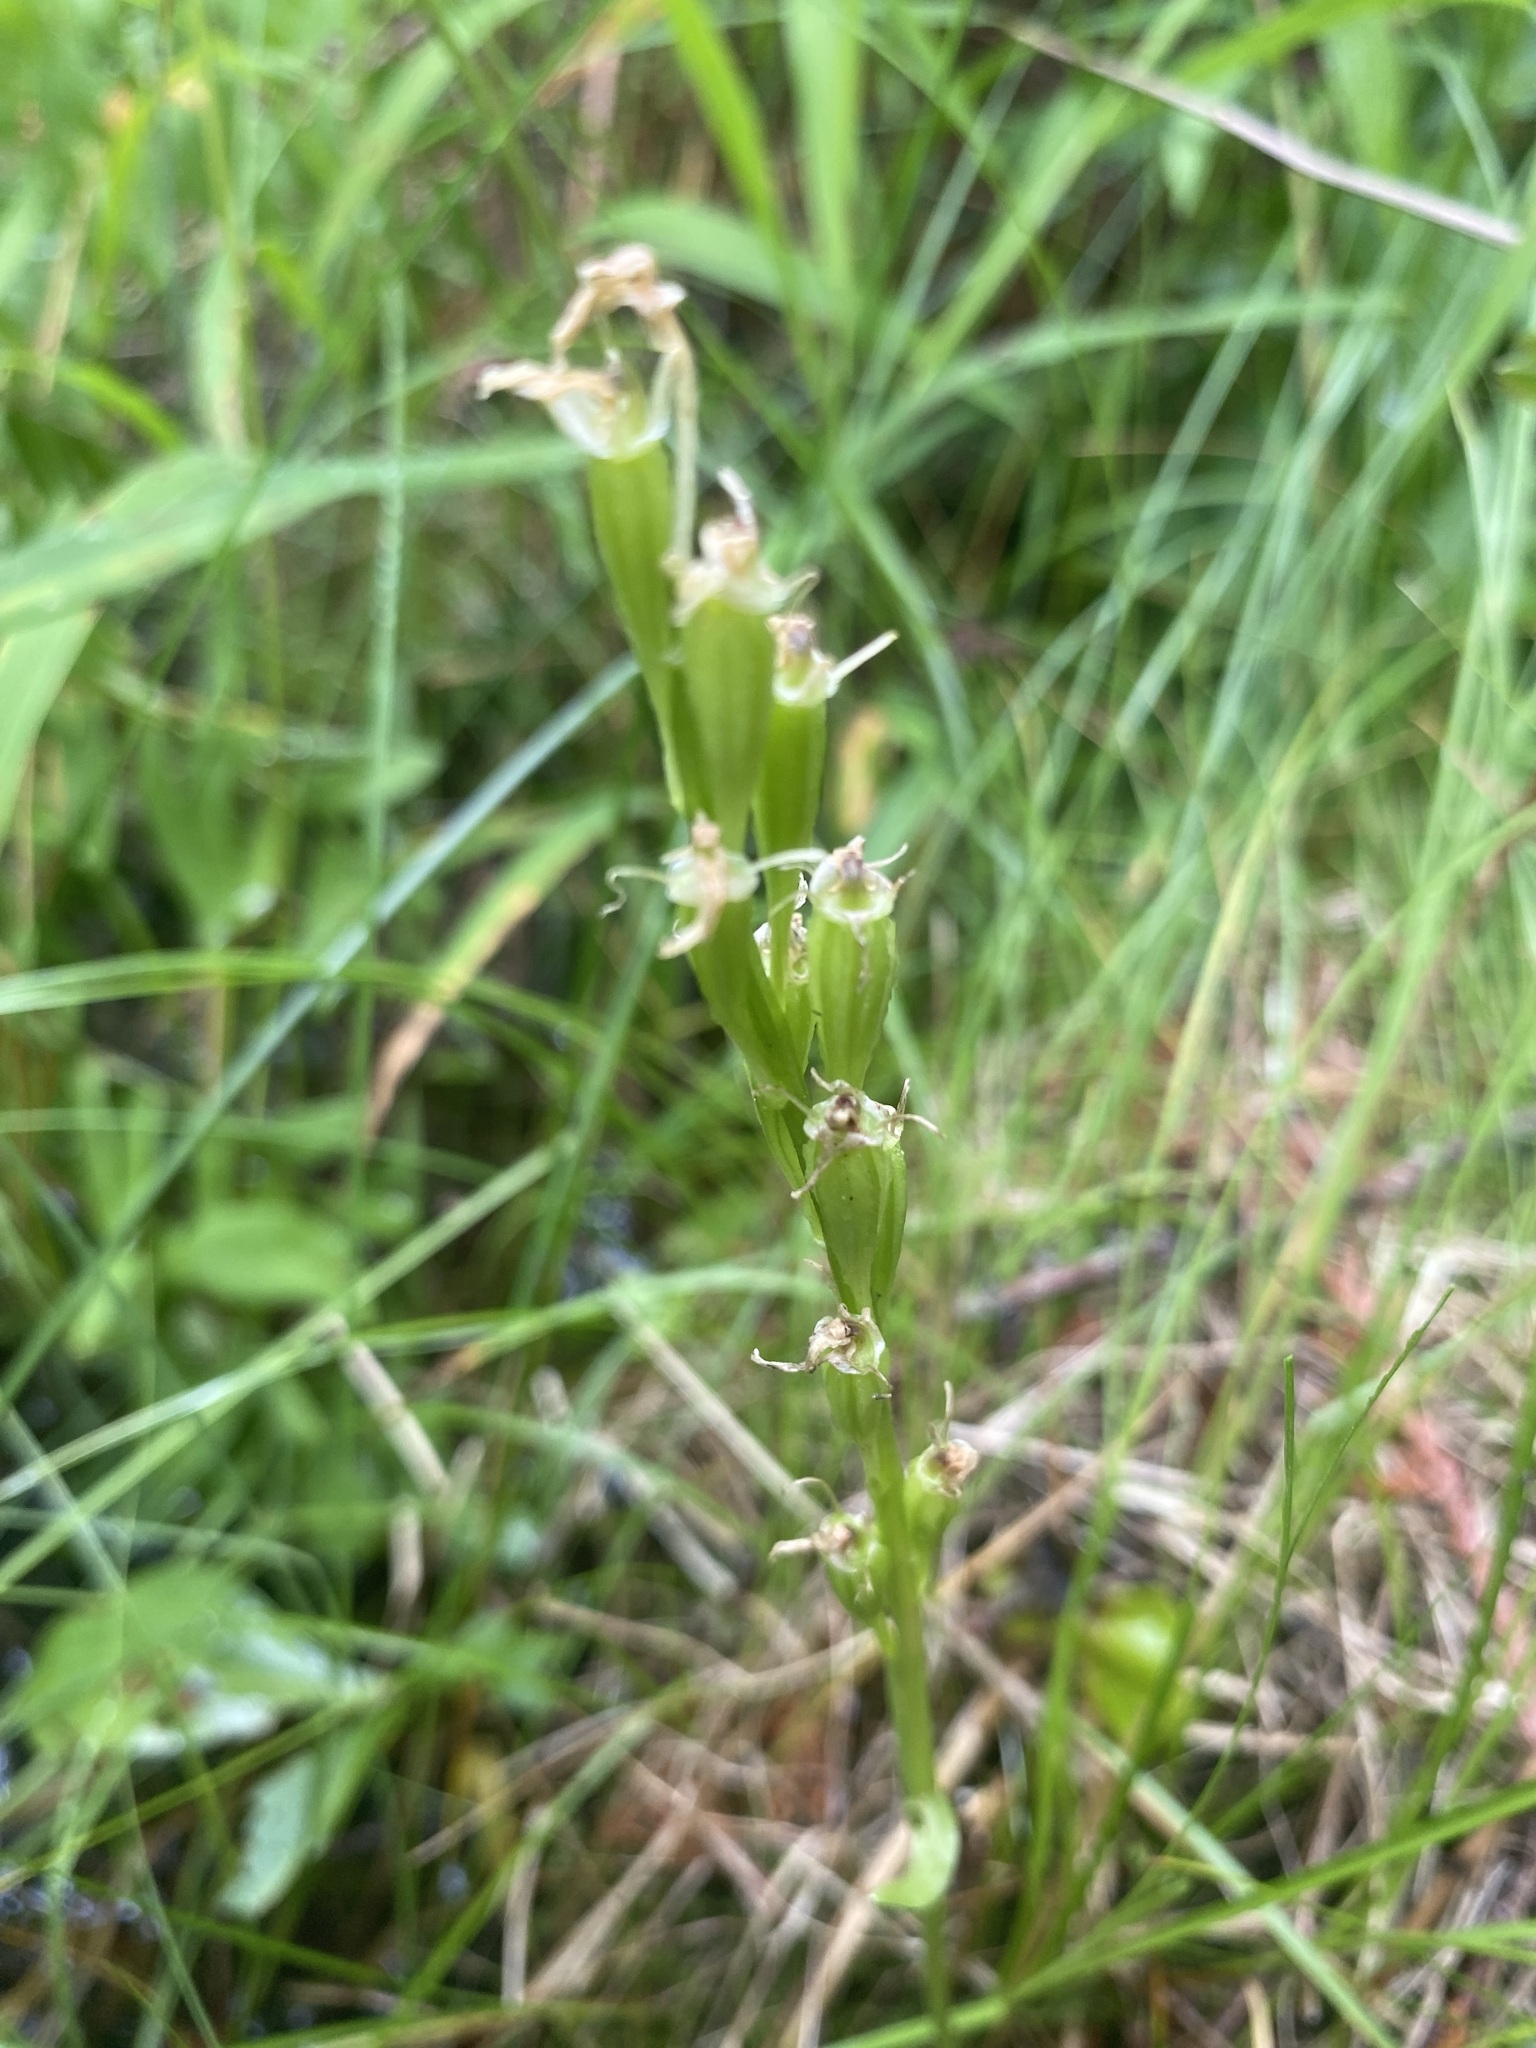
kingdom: Animalia
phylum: Arthropoda
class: Insecta
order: Coleoptera
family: Curculionidae
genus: Liparis
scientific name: Liparis loeselii
